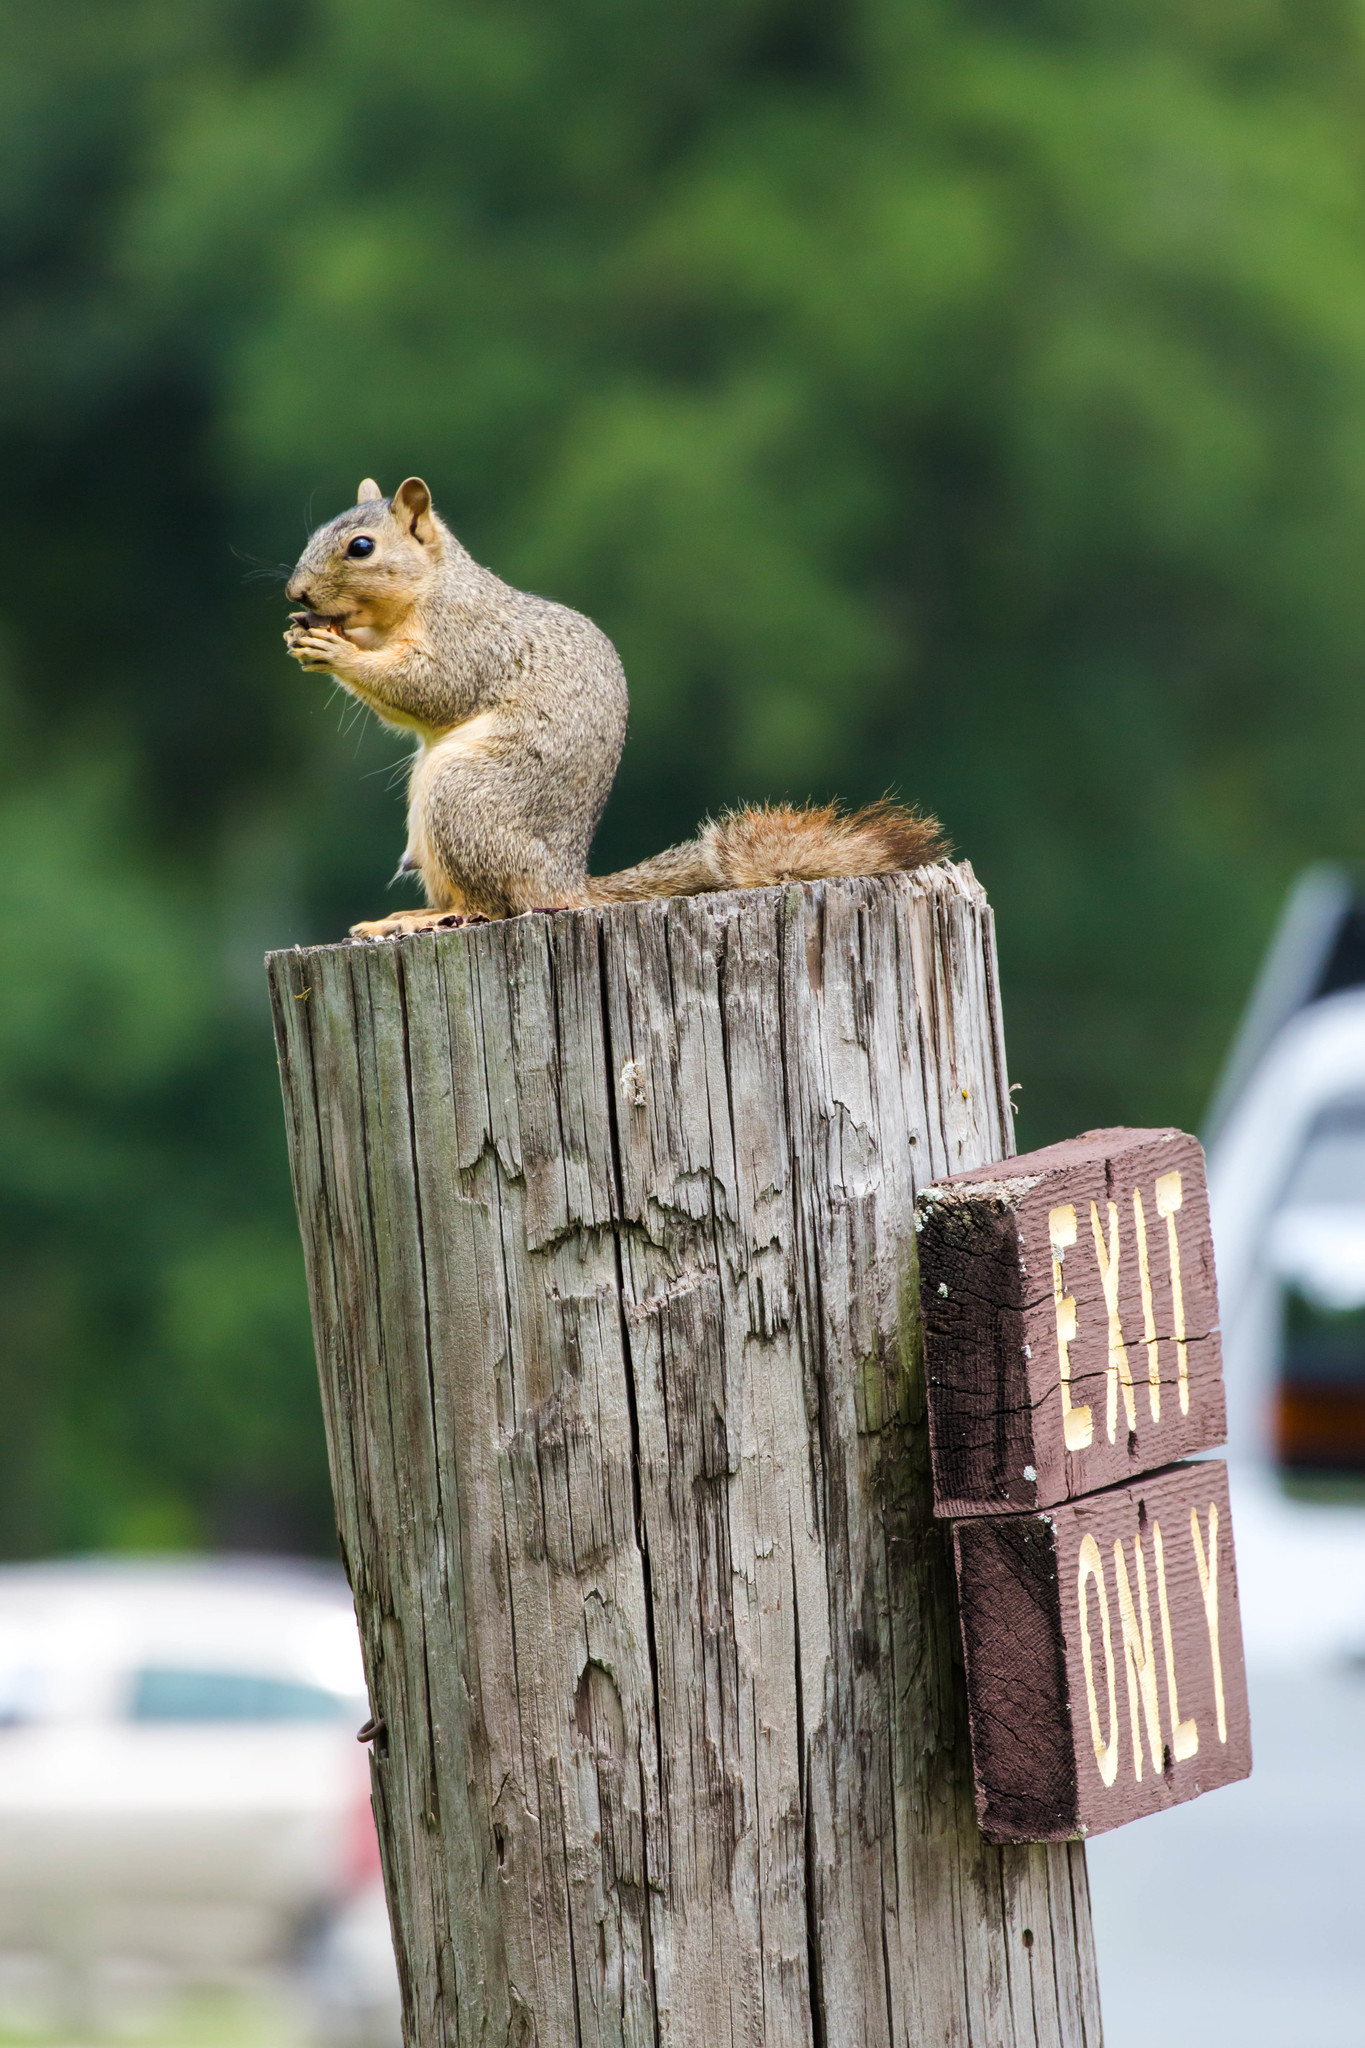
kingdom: Animalia
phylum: Chordata
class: Mammalia
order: Rodentia
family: Sciuridae
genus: Sciurus
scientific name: Sciurus niger
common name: Fox squirrel
